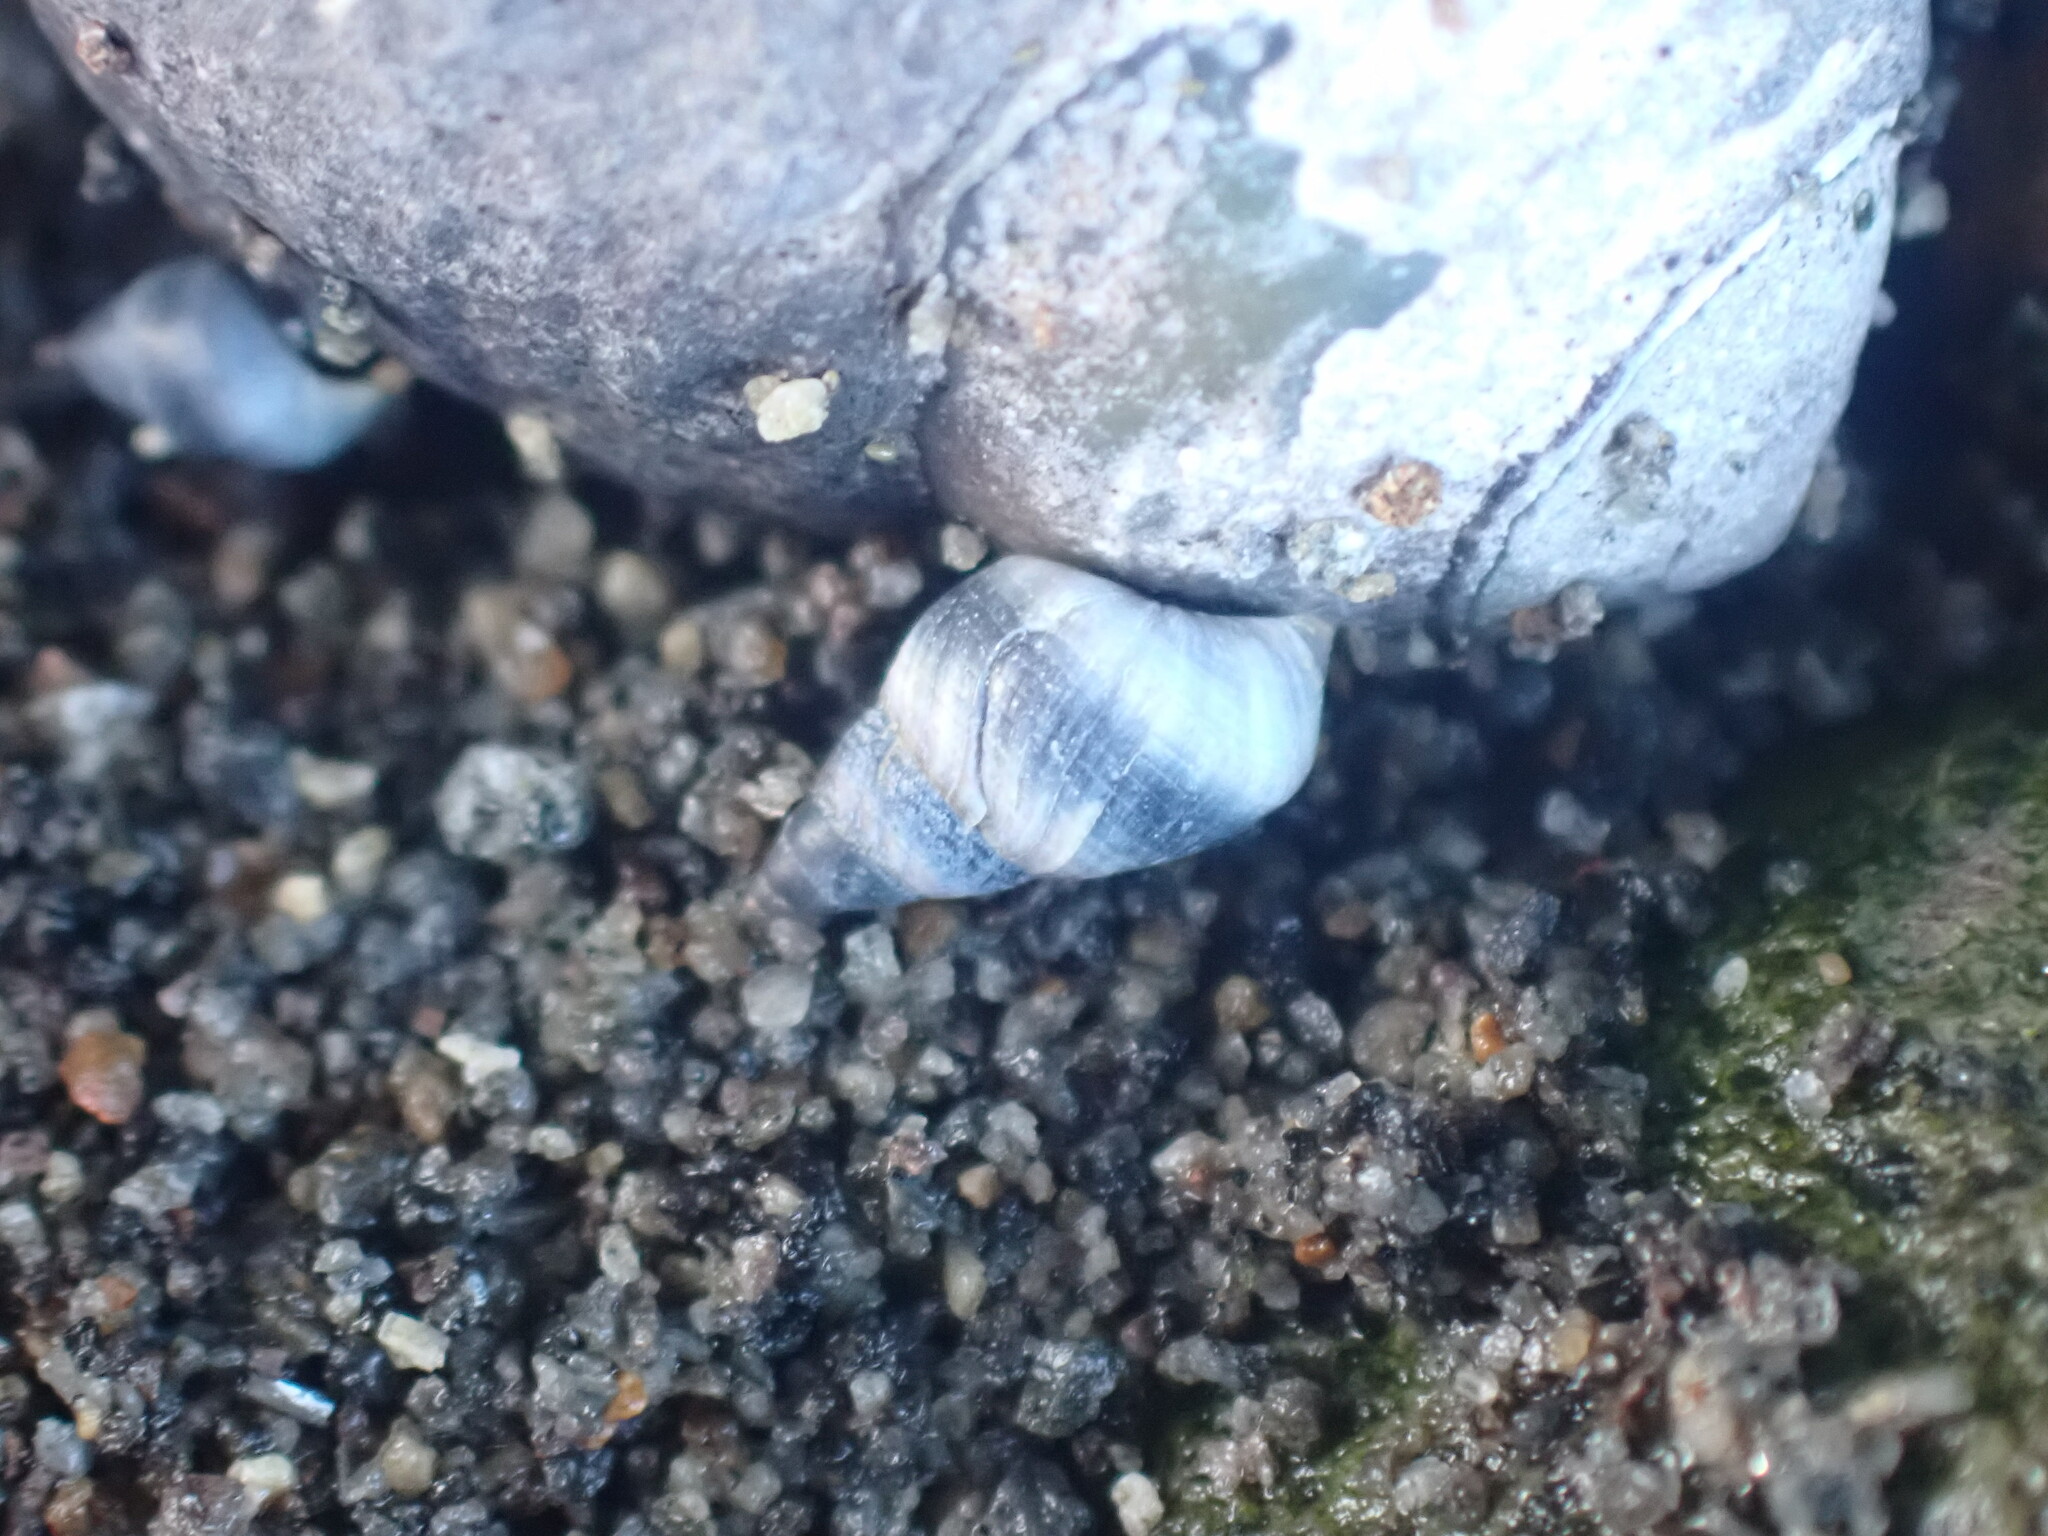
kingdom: Animalia
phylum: Mollusca
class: Gastropoda
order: Littorinimorpha
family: Littorinidae
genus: Austrolittorina
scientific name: Austrolittorina antipodum
